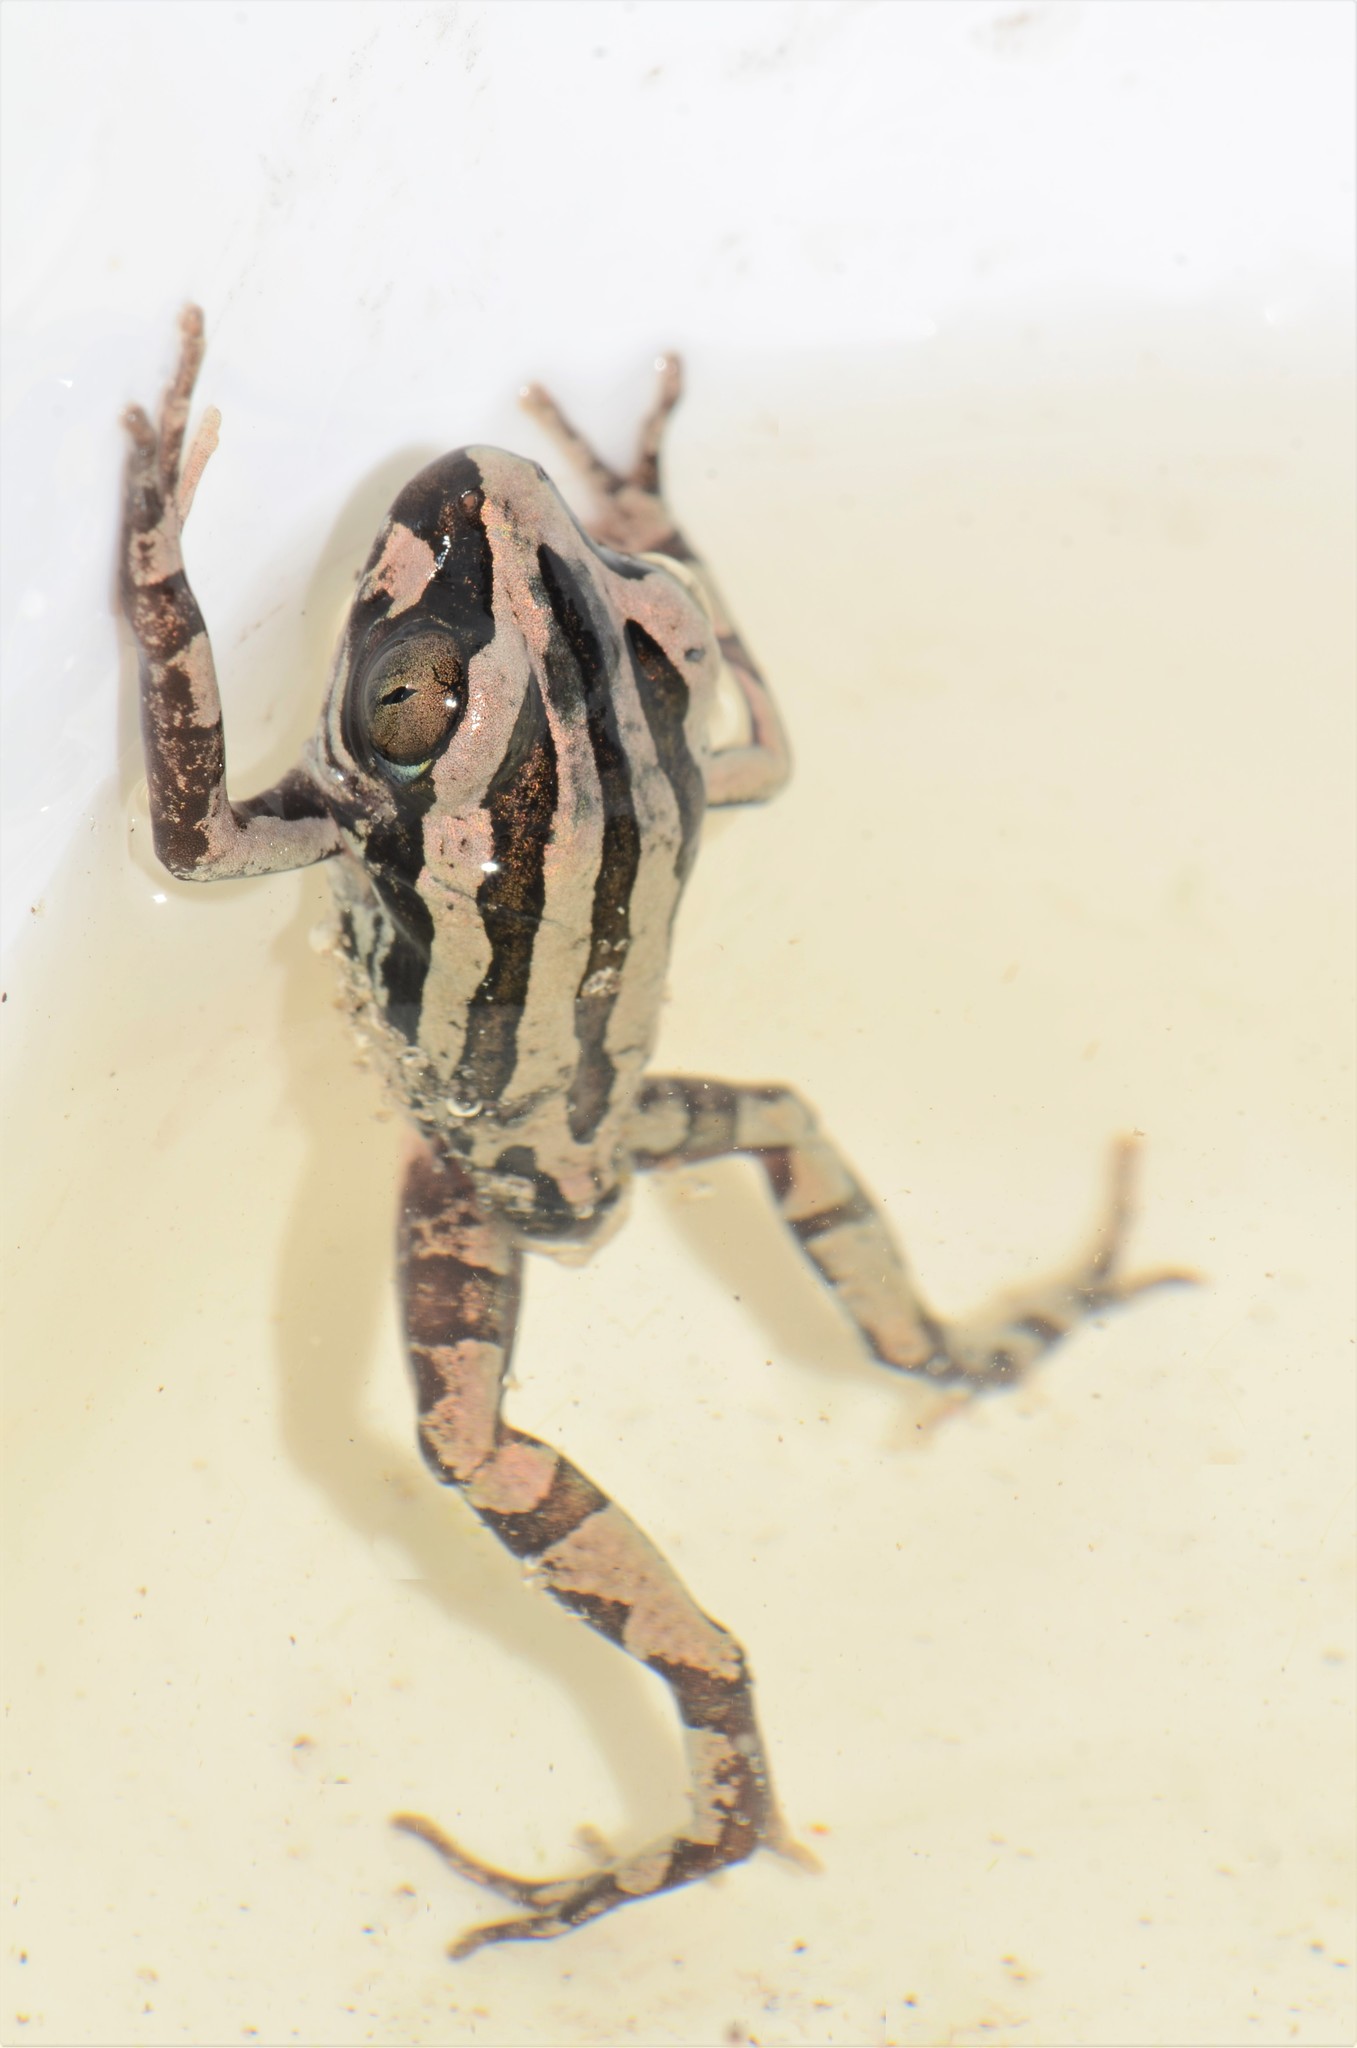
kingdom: Animalia
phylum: Chordata
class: Amphibia
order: Anura
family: Hyperoliidae
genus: Kassina
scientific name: Kassina senegalensis
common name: Senegal land frog
